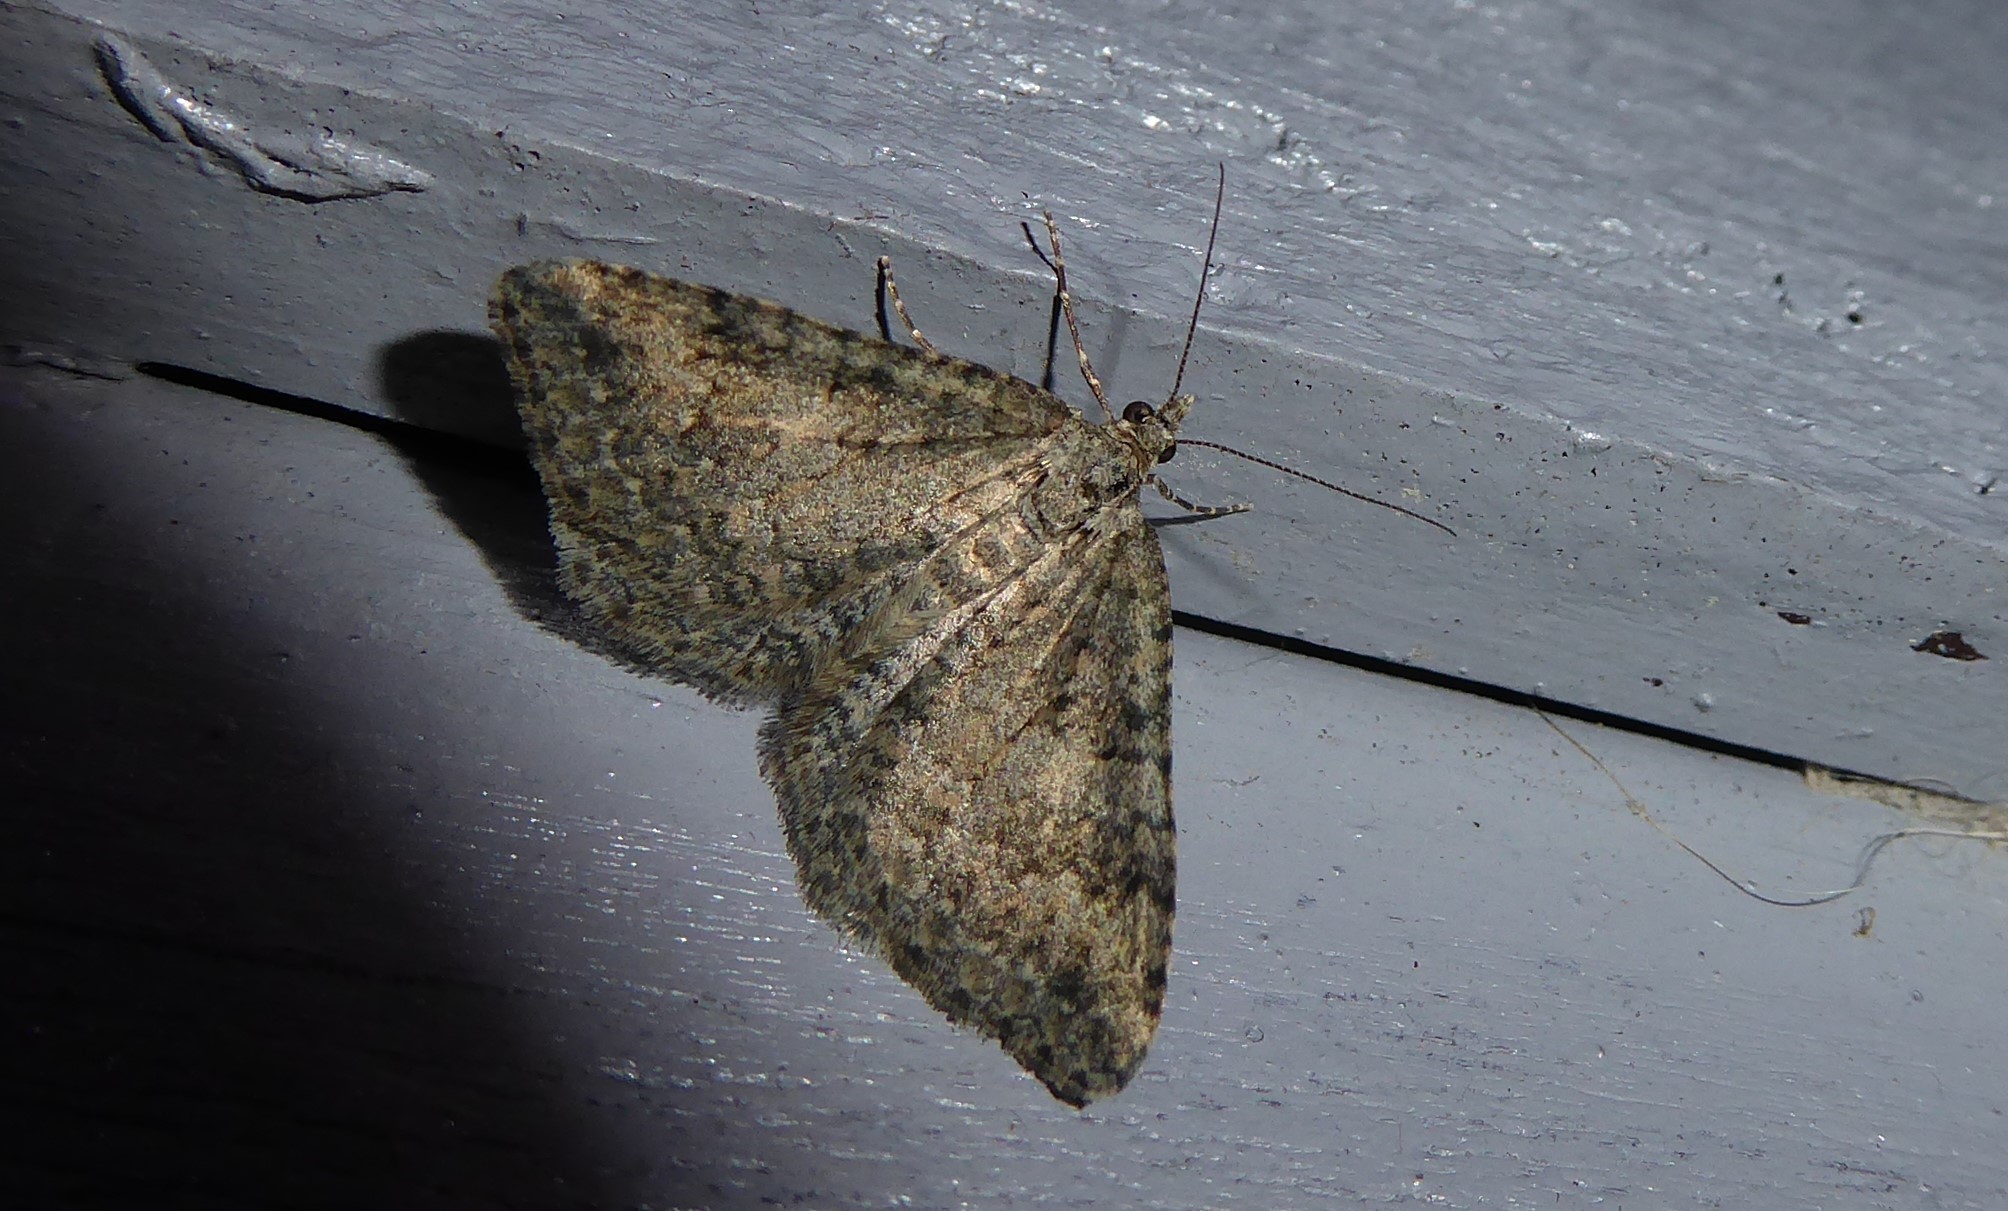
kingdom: Animalia
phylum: Arthropoda
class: Insecta
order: Lepidoptera
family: Geometridae
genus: Helastia
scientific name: Helastia corcularia
